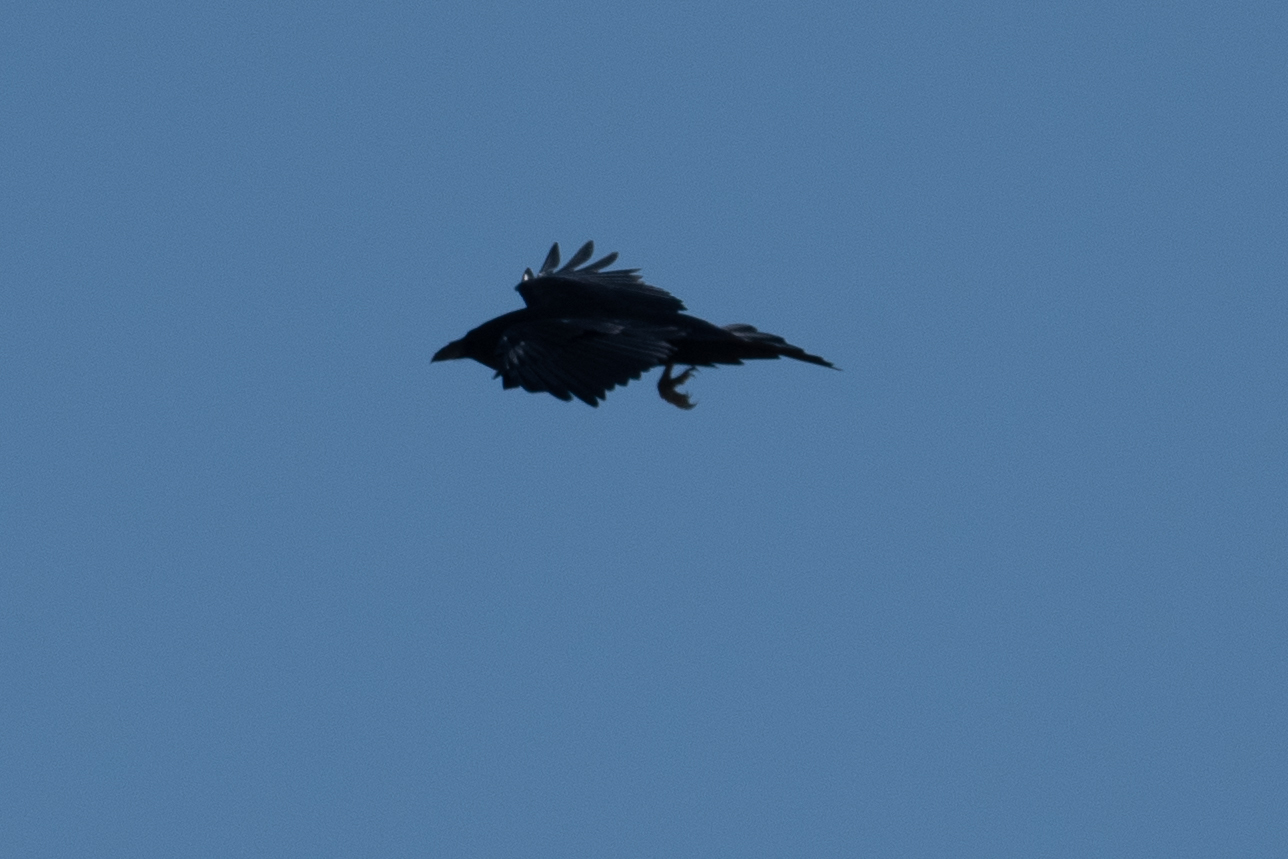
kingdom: Animalia
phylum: Chordata
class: Aves
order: Passeriformes
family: Corvidae
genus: Corvus
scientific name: Corvus corax
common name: Common raven
